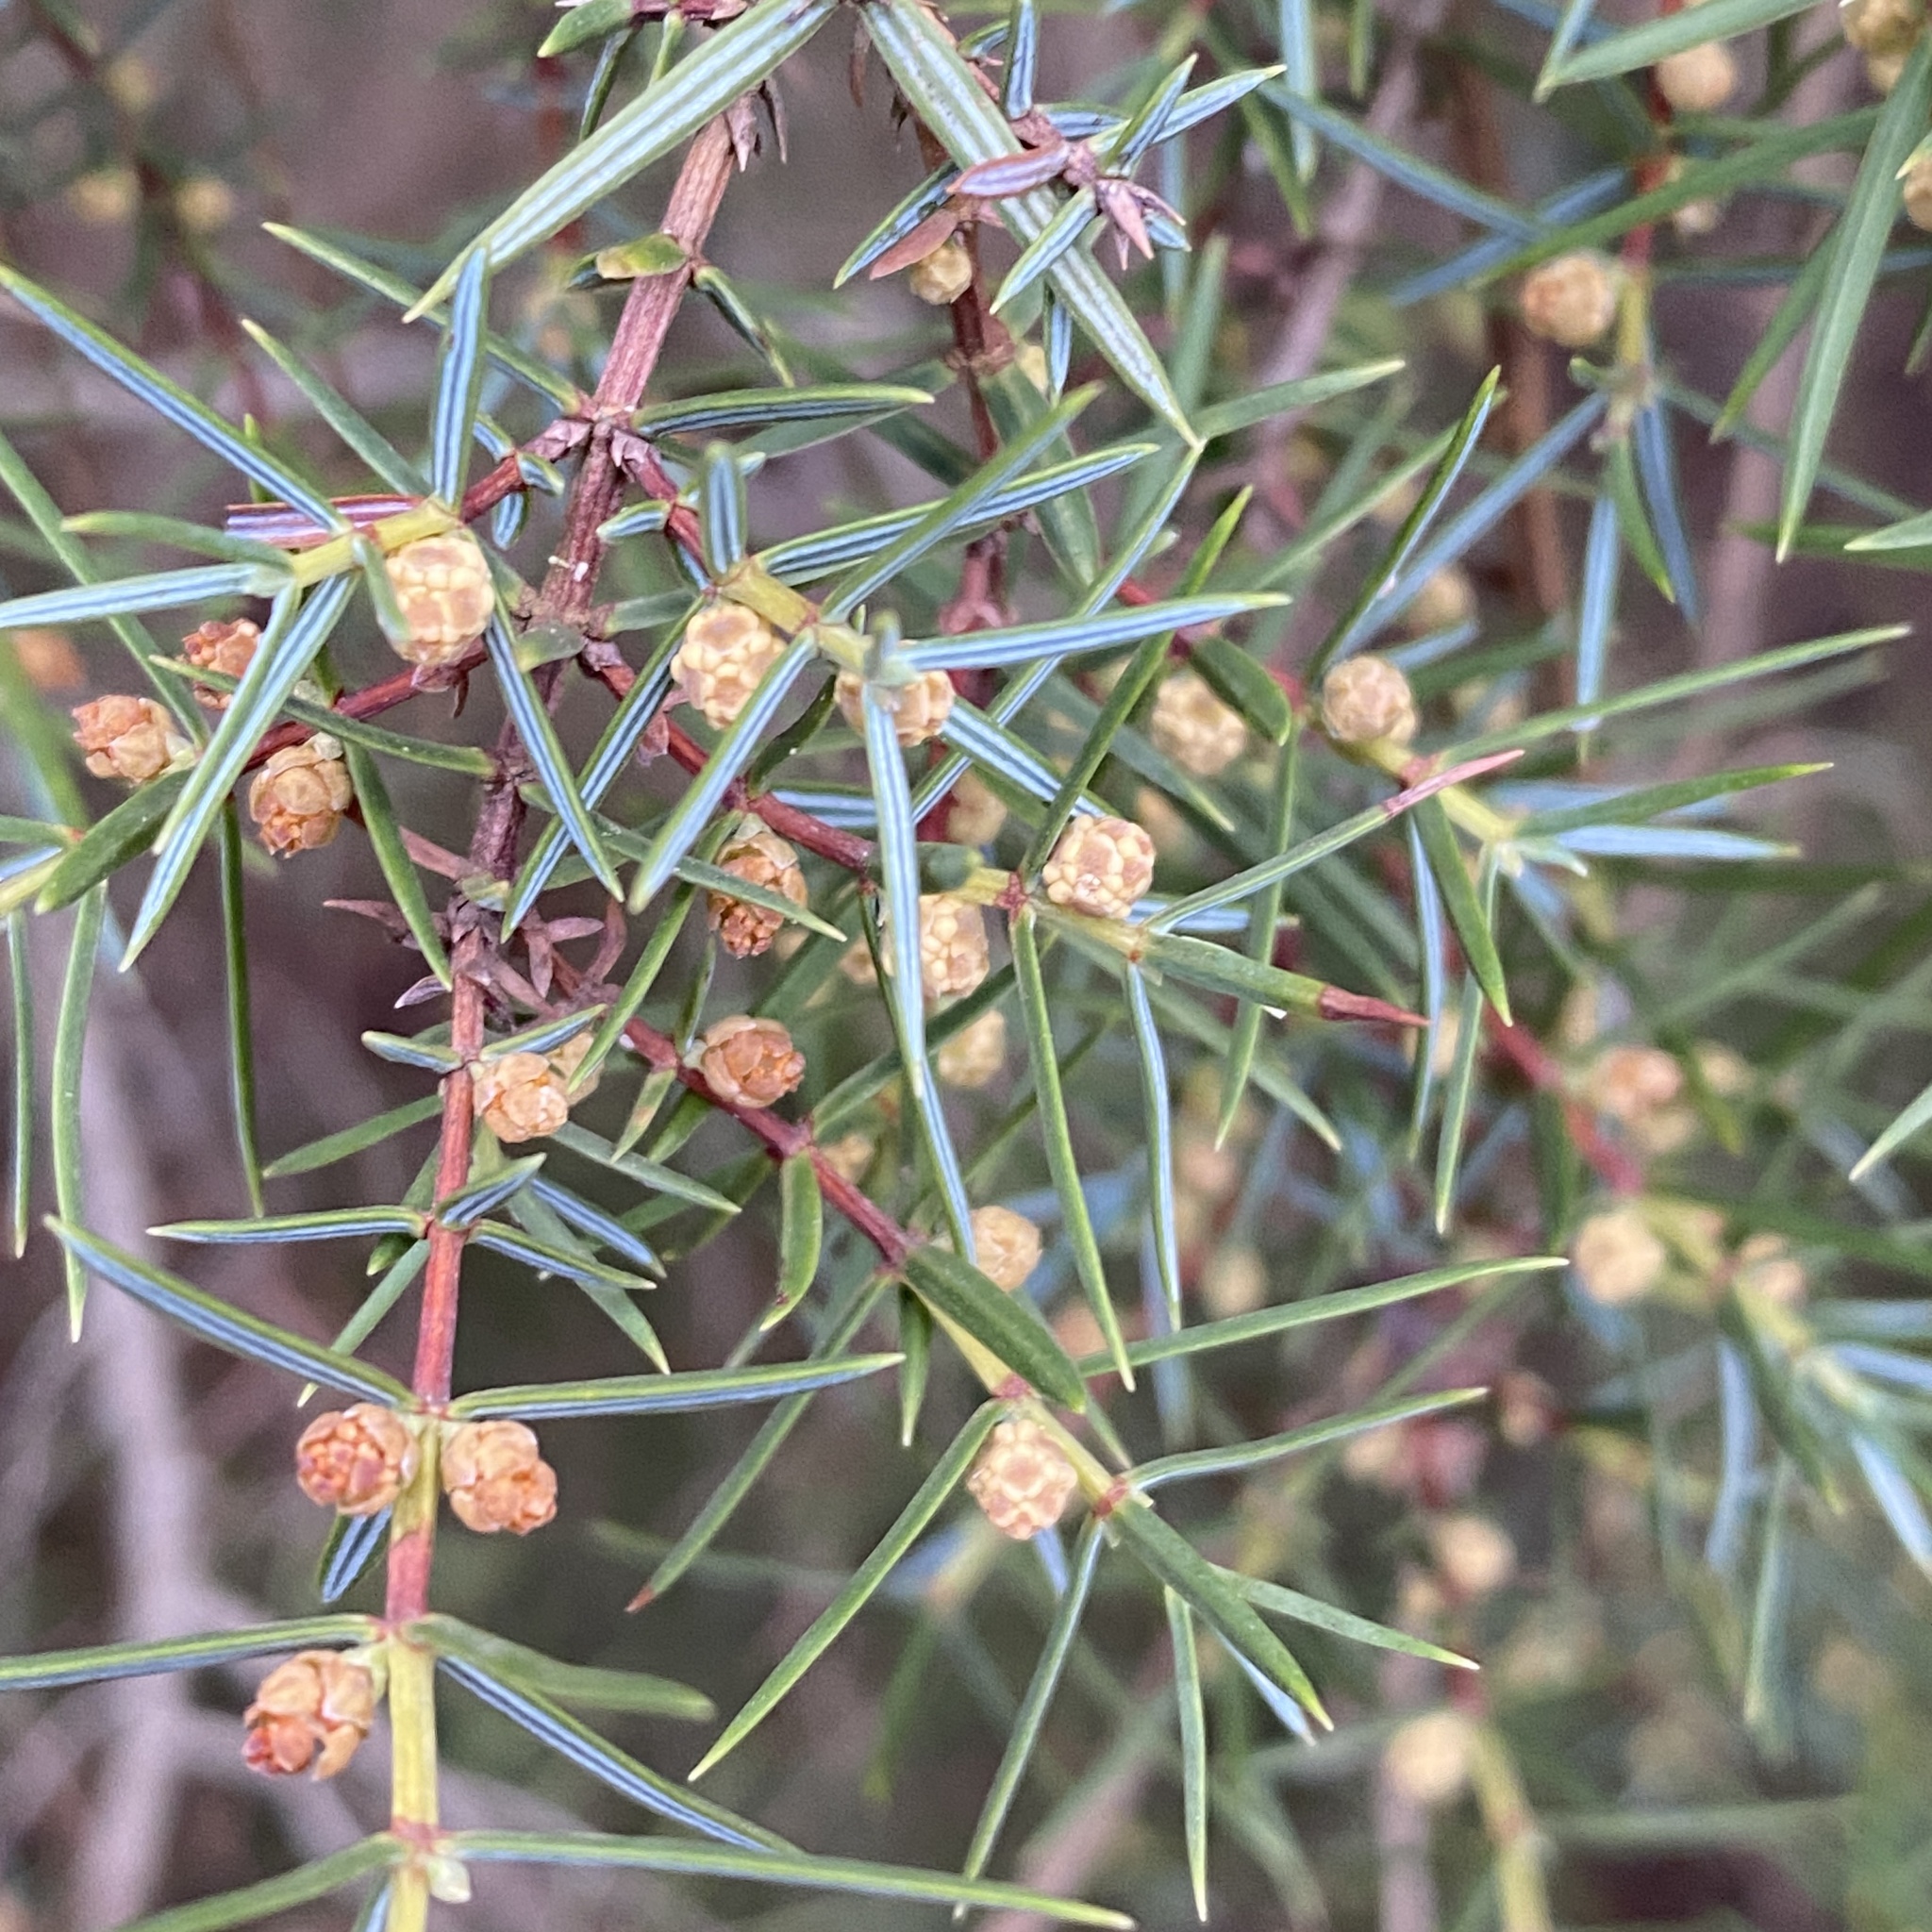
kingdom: Plantae
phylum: Tracheophyta
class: Pinopsida
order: Pinales
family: Cupressaceae
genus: Juniperus
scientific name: Juniperus oxycedrus
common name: Prickly juniper
